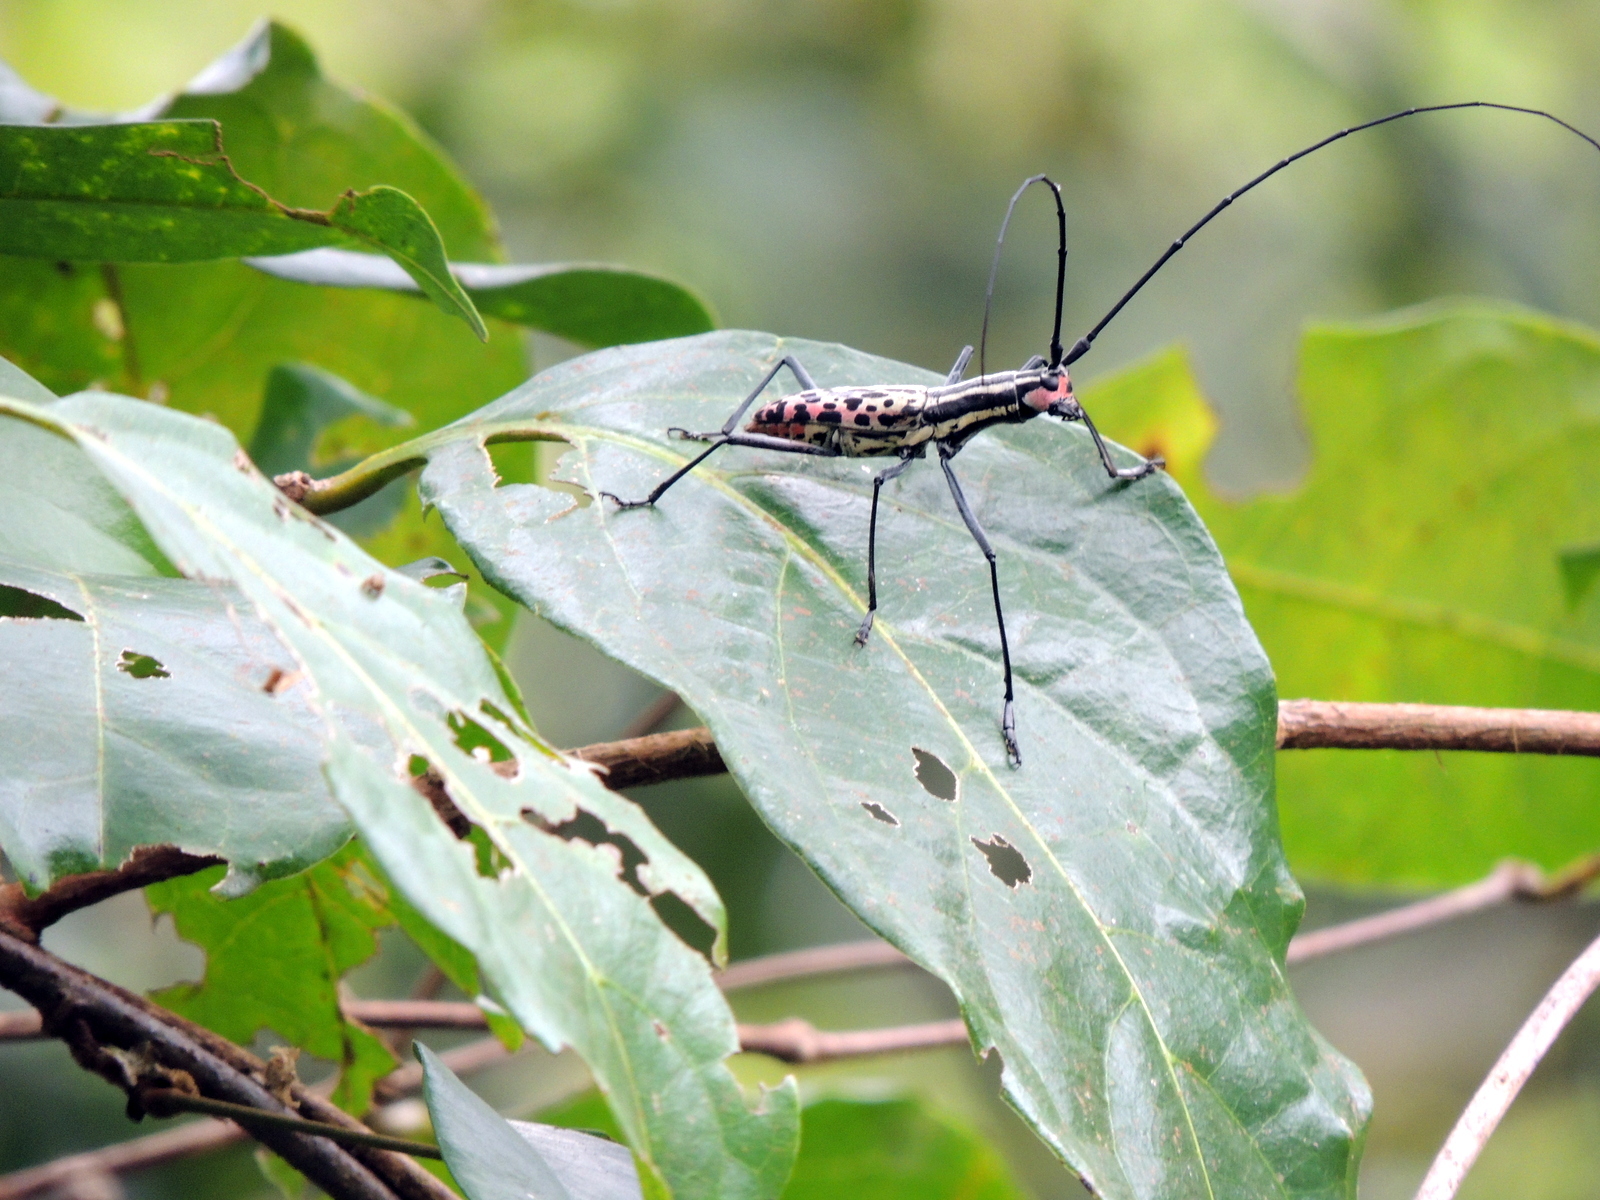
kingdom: Animalia
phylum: Arthropoda
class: Insecta
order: Coleoptera
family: Cerambycidae
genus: Macrochenus
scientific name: Macrochenus guerinii
